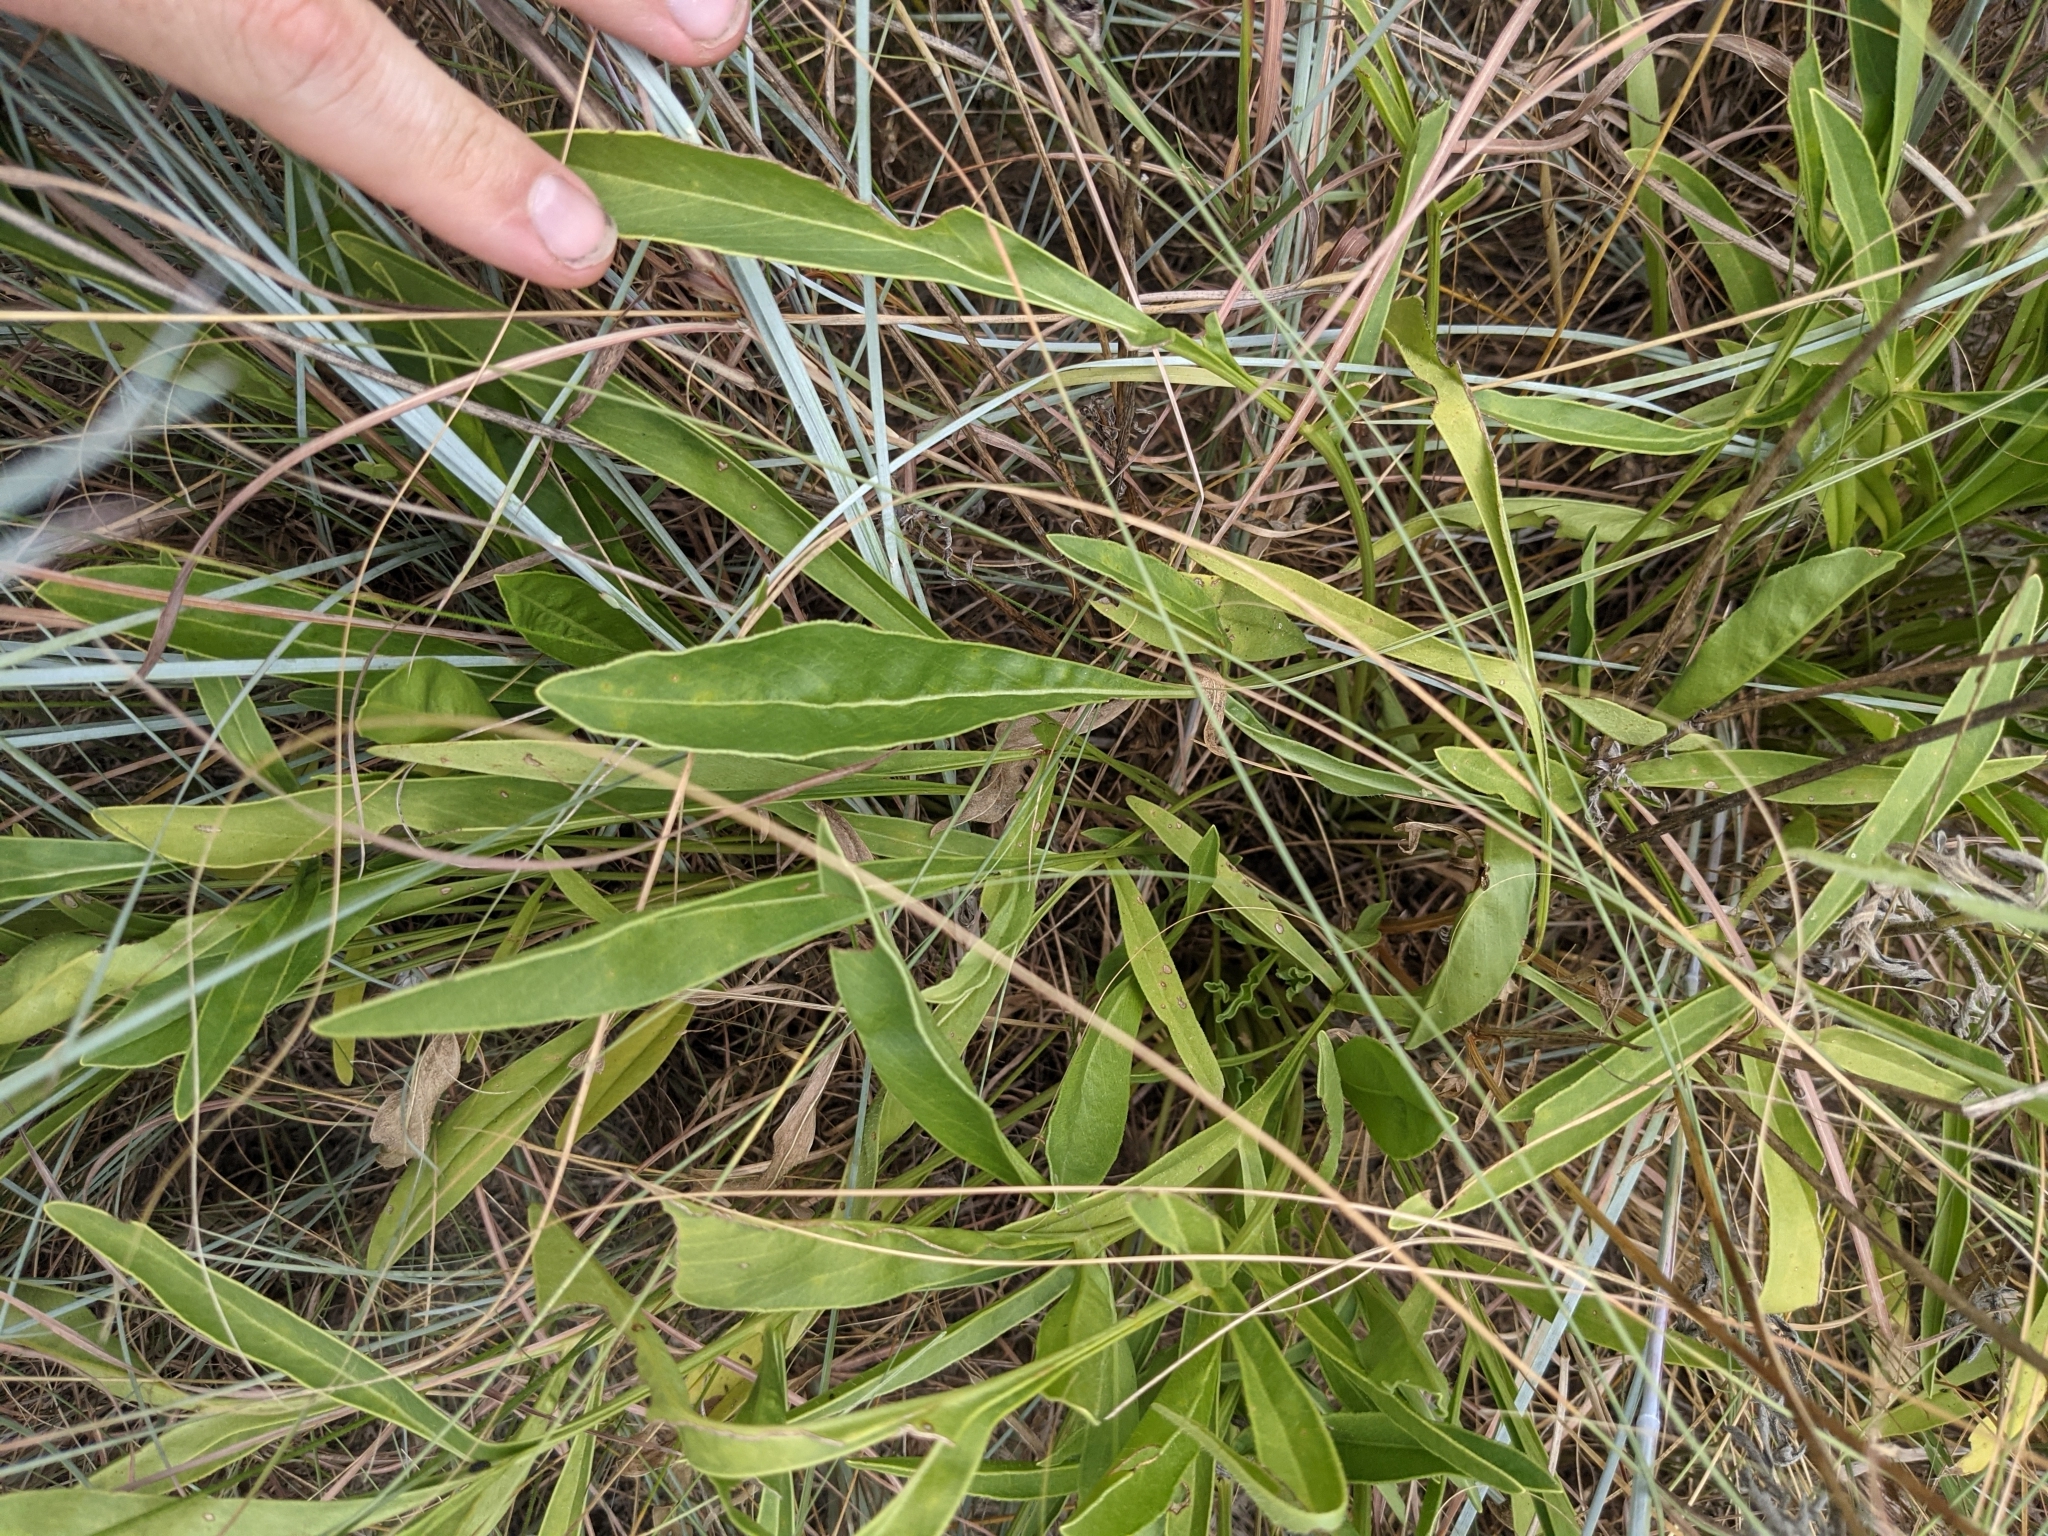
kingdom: Plantae
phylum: Tracheophyta
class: Magnoliopsida
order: Asterales
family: Asteraceae
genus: Coreopsis
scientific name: Coreopsis lanceolata
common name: Garden coreopsis
